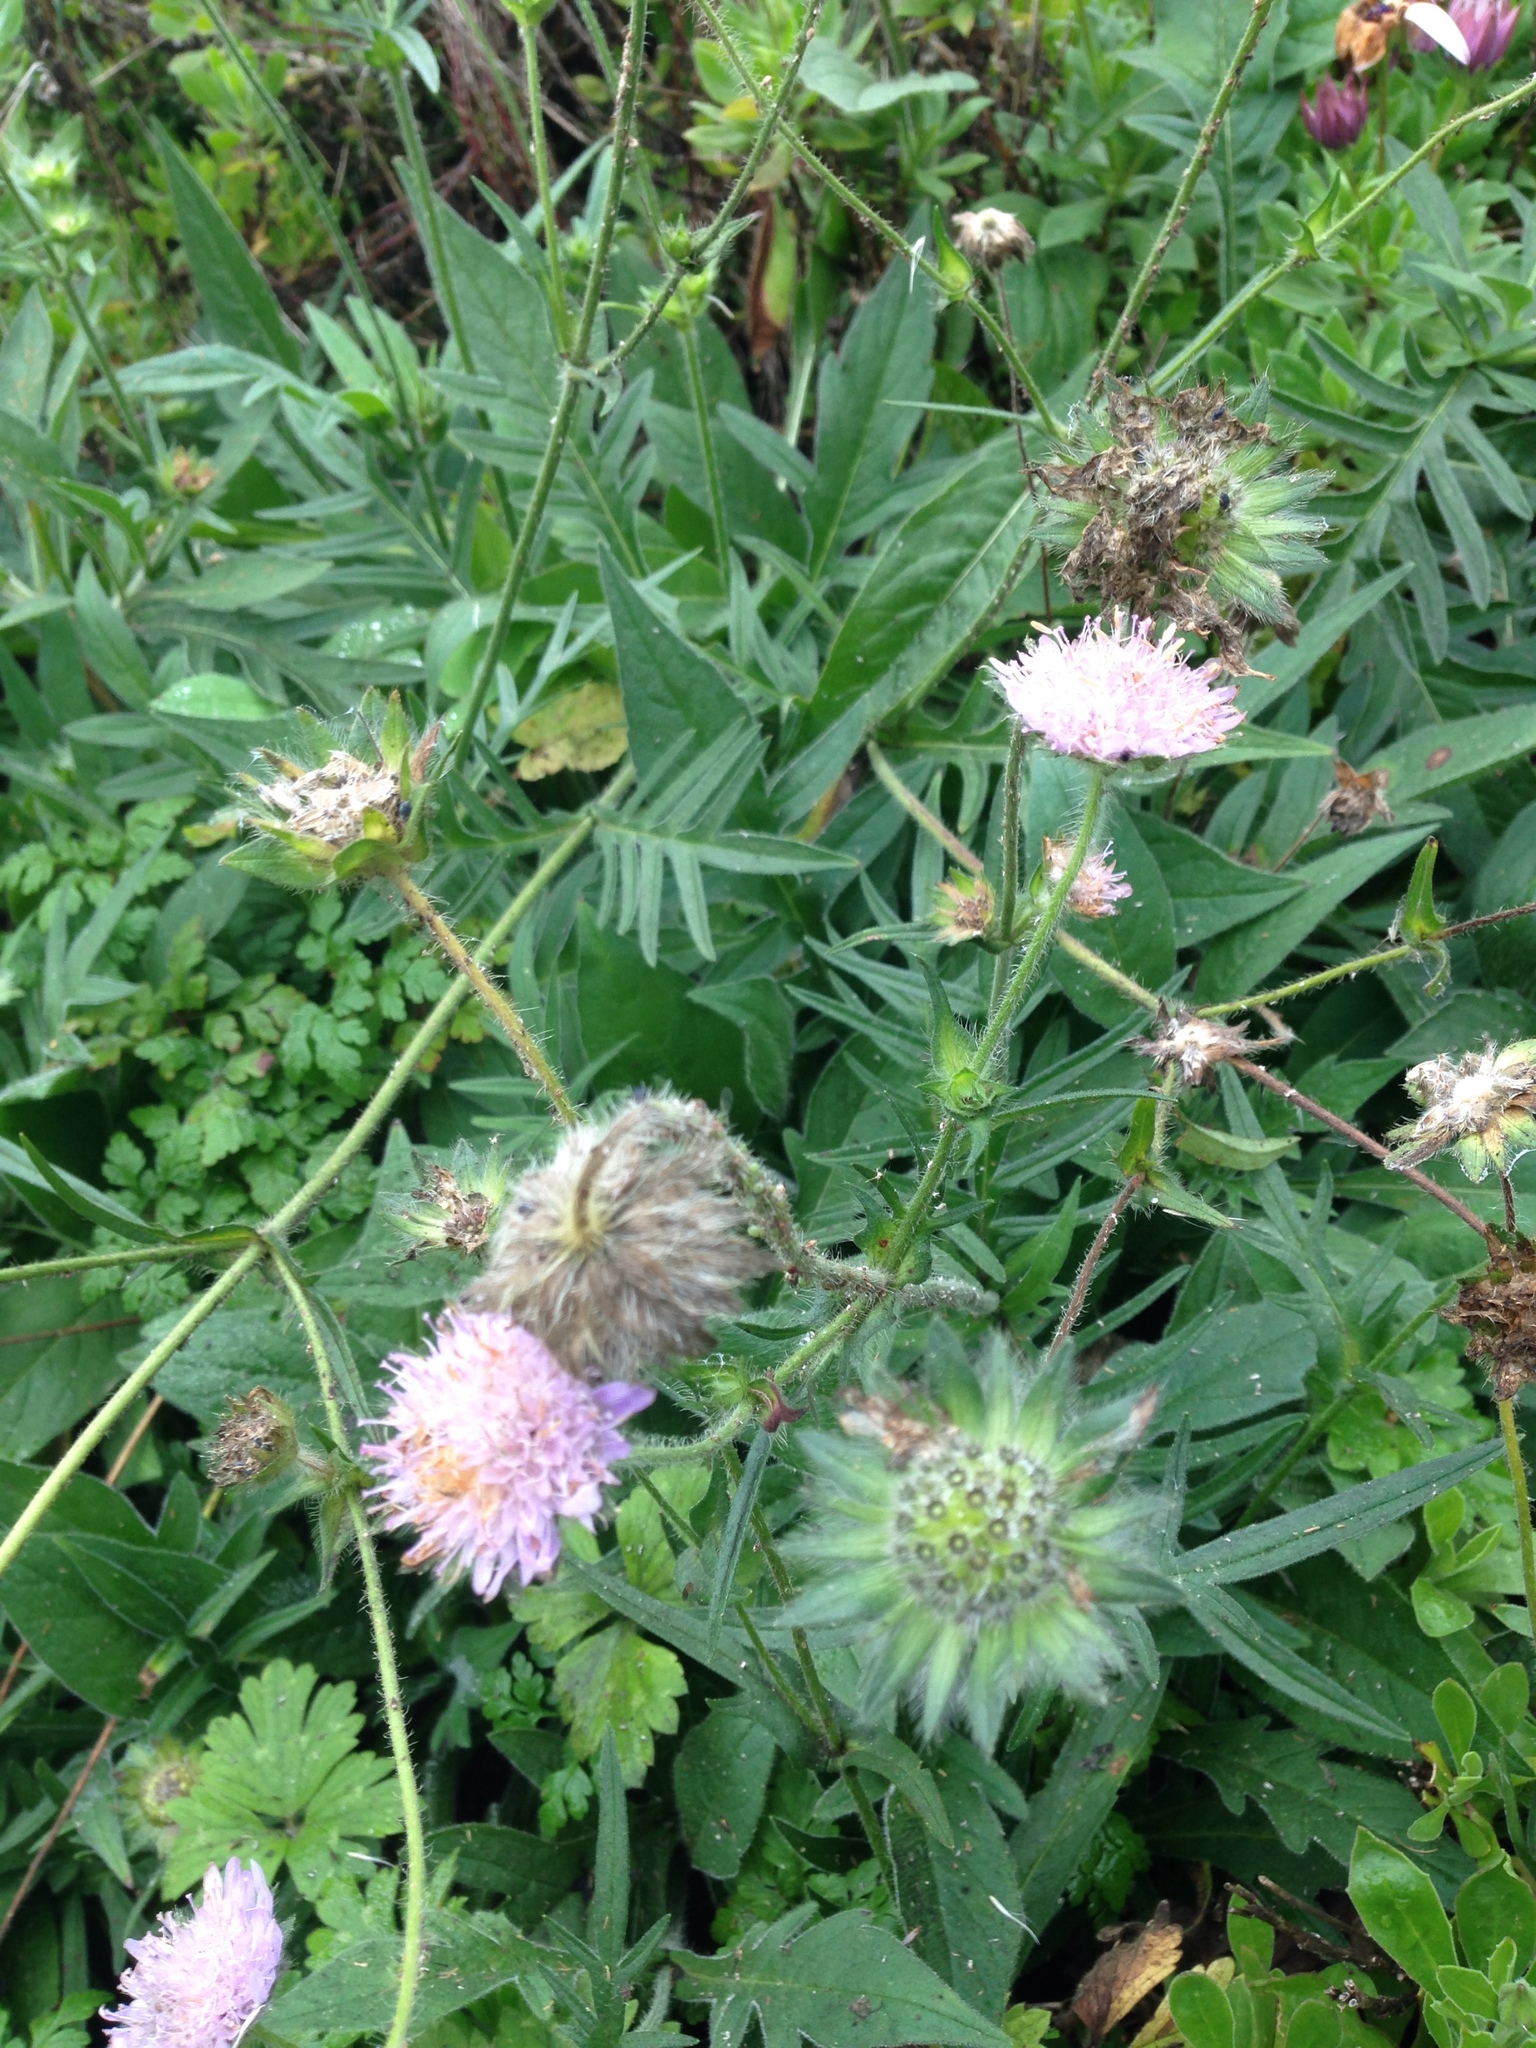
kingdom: Plantae
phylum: Tracheophyta
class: Magnoliopsida
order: Dipsacales
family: Caprifoliaceae
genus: Knautia
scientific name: Knautia arvensis
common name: Field scabiosa
